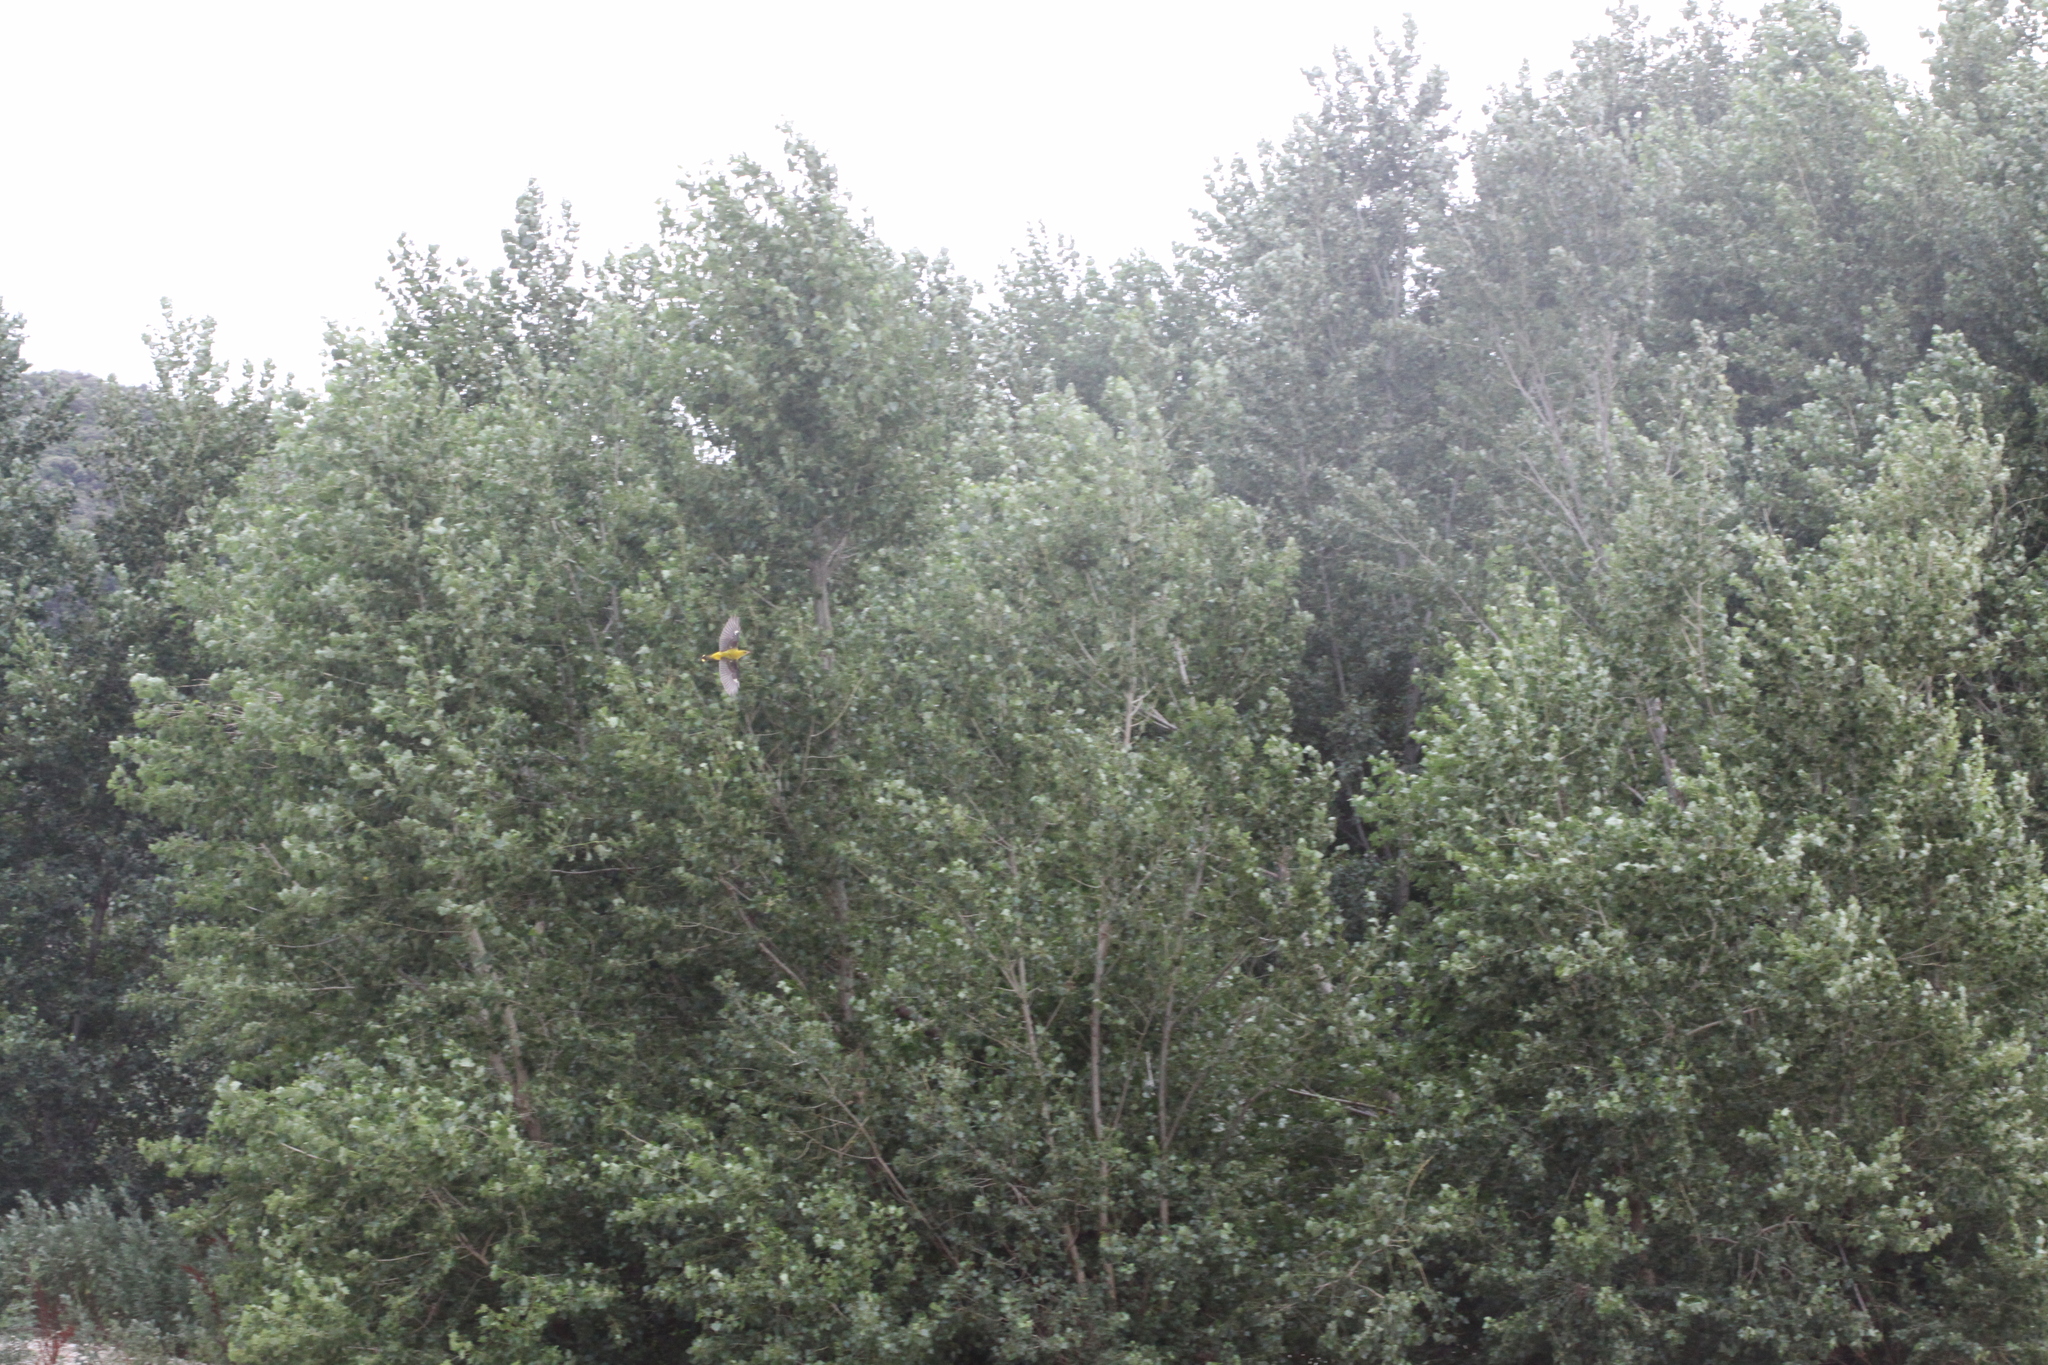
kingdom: Animalia
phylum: Chordata
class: Aves
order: Passeriformes
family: Oriolidae
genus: Oriolus
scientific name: Oriolus oriolus
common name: Eurasian golden oriole
